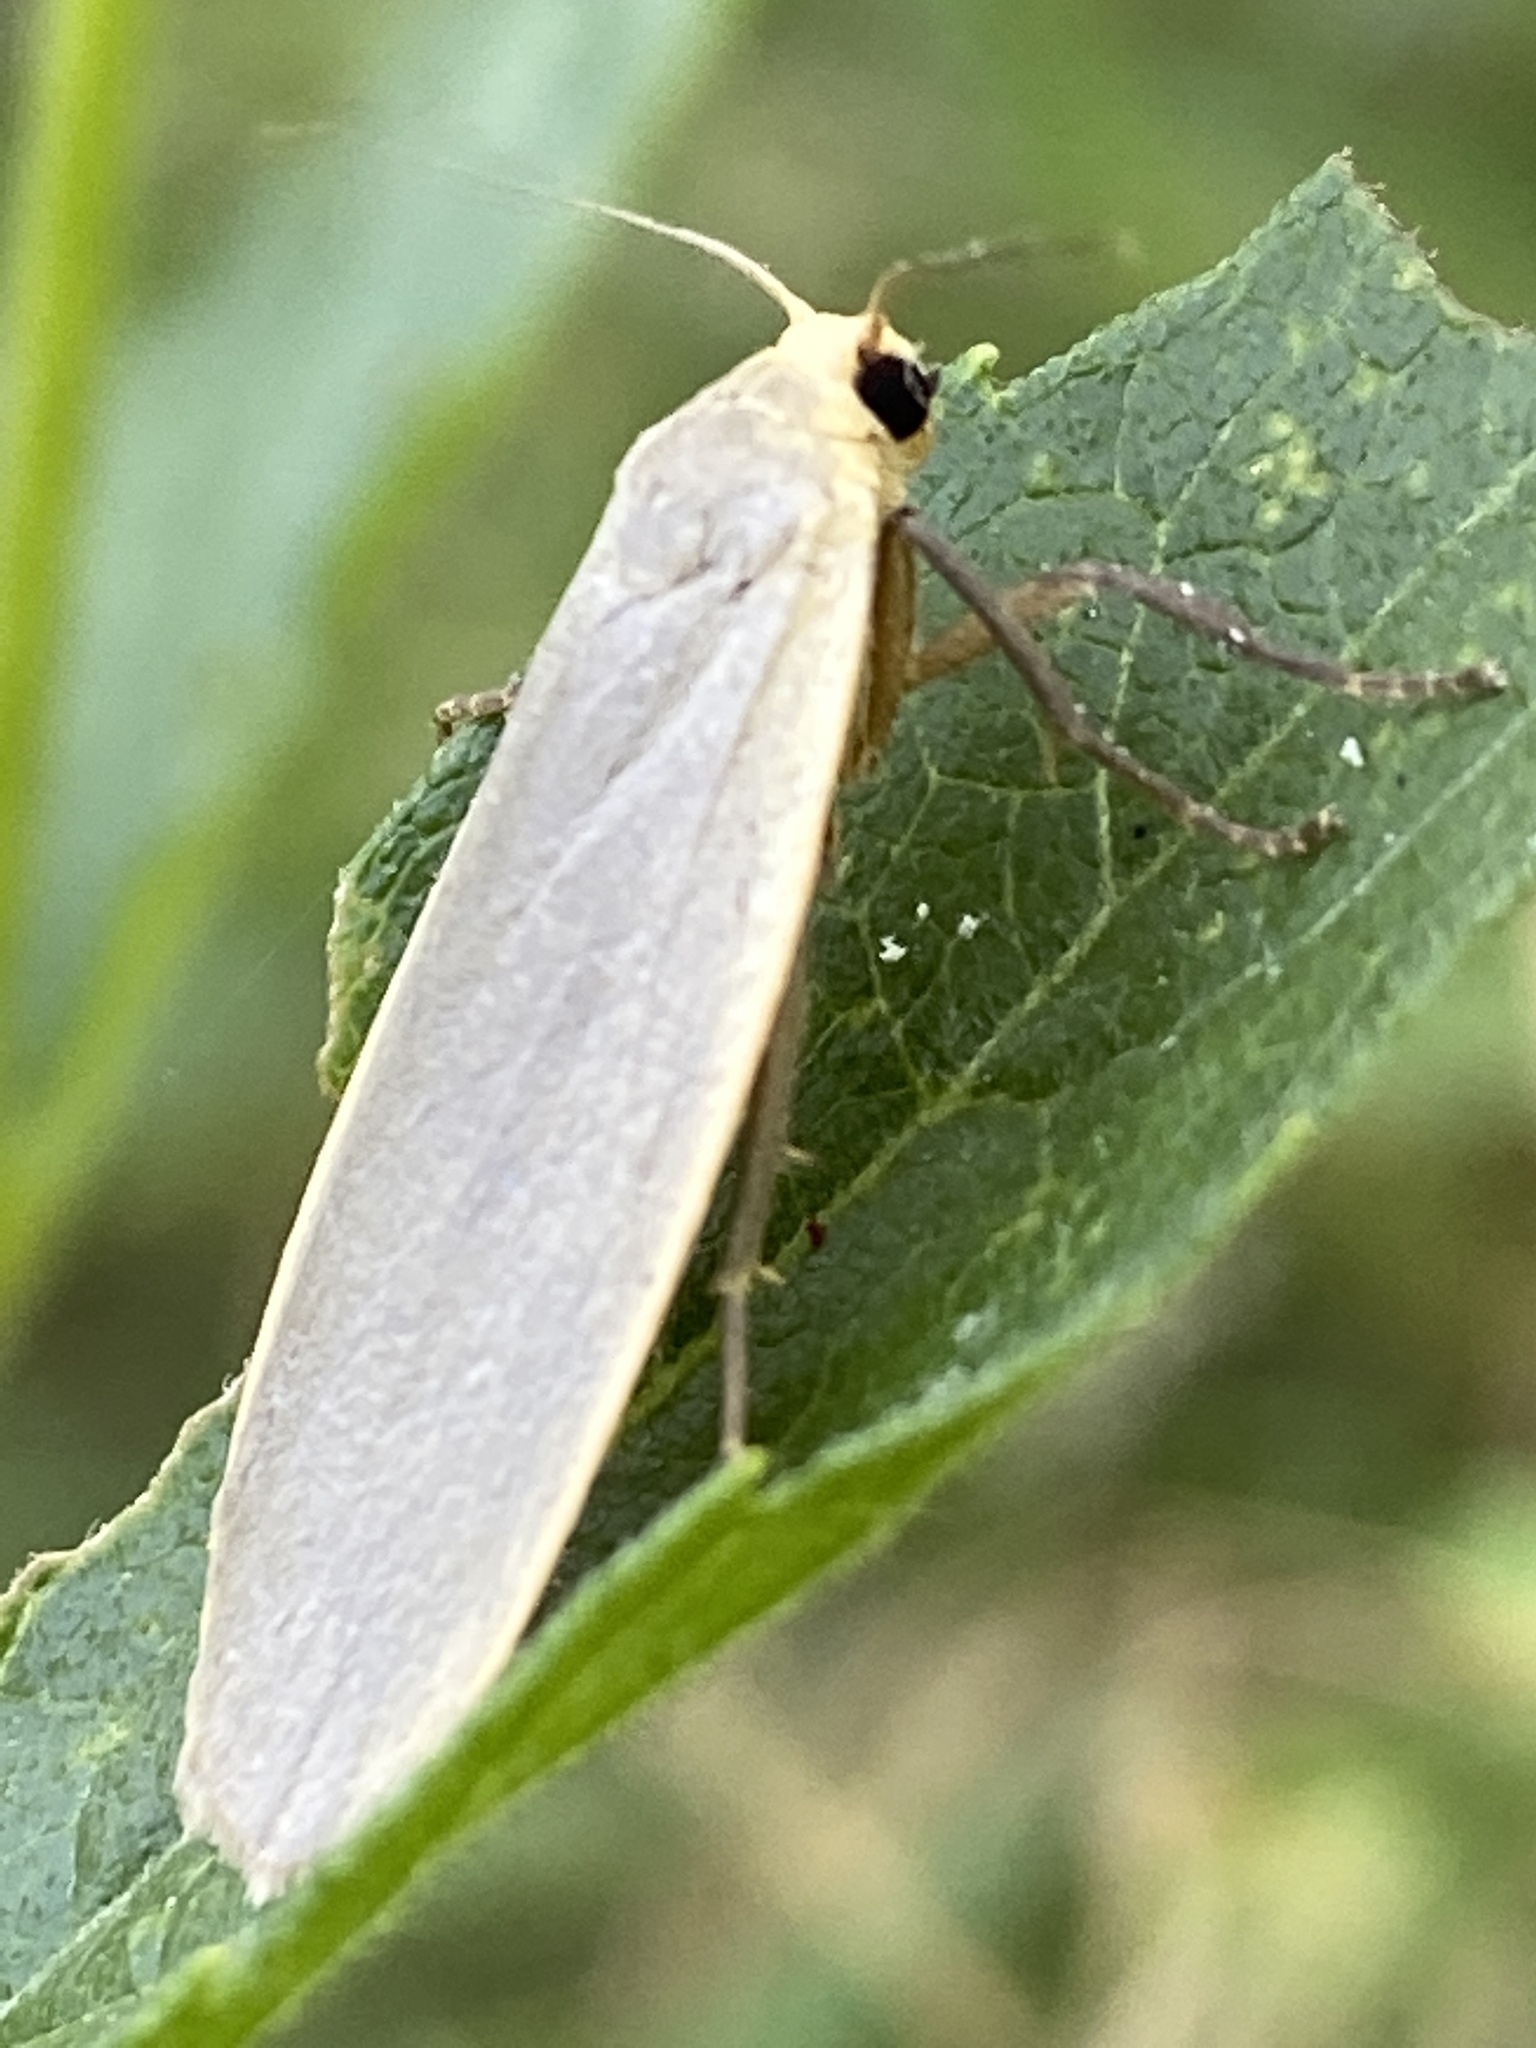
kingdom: Animalia
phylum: Arthropoda
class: Insecta
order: Lepidoptera
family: Erebidae
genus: Collita
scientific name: Collita griseola
